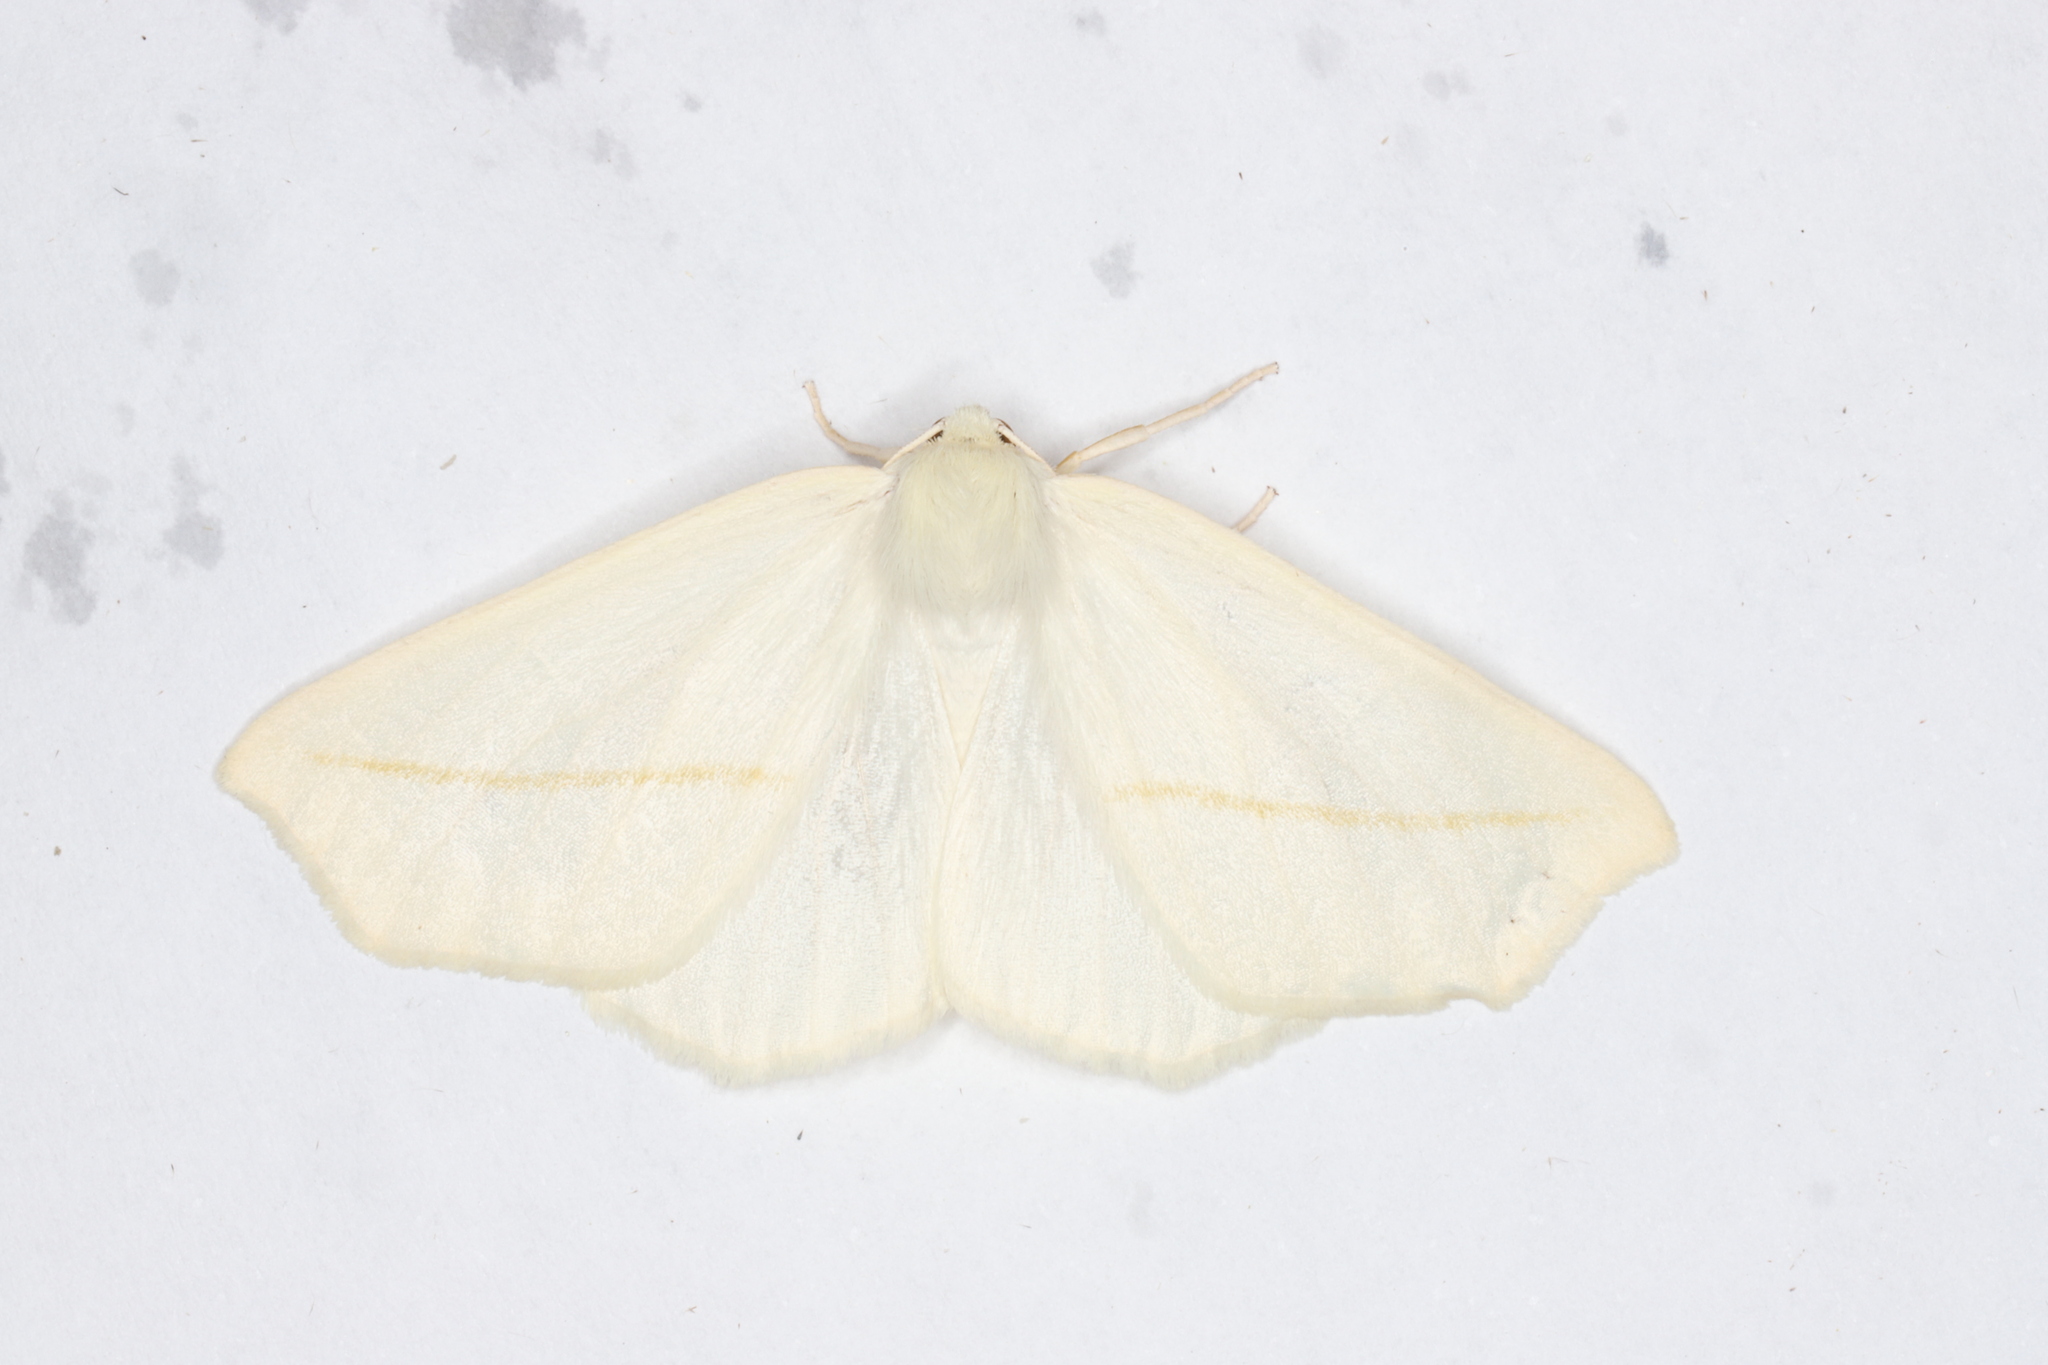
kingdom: Animalia
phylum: Arthropoda
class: Insecta
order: Lepidoptera
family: Geometridae
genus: Tetracis
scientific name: Tetracis cachexiata
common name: White slant-line
